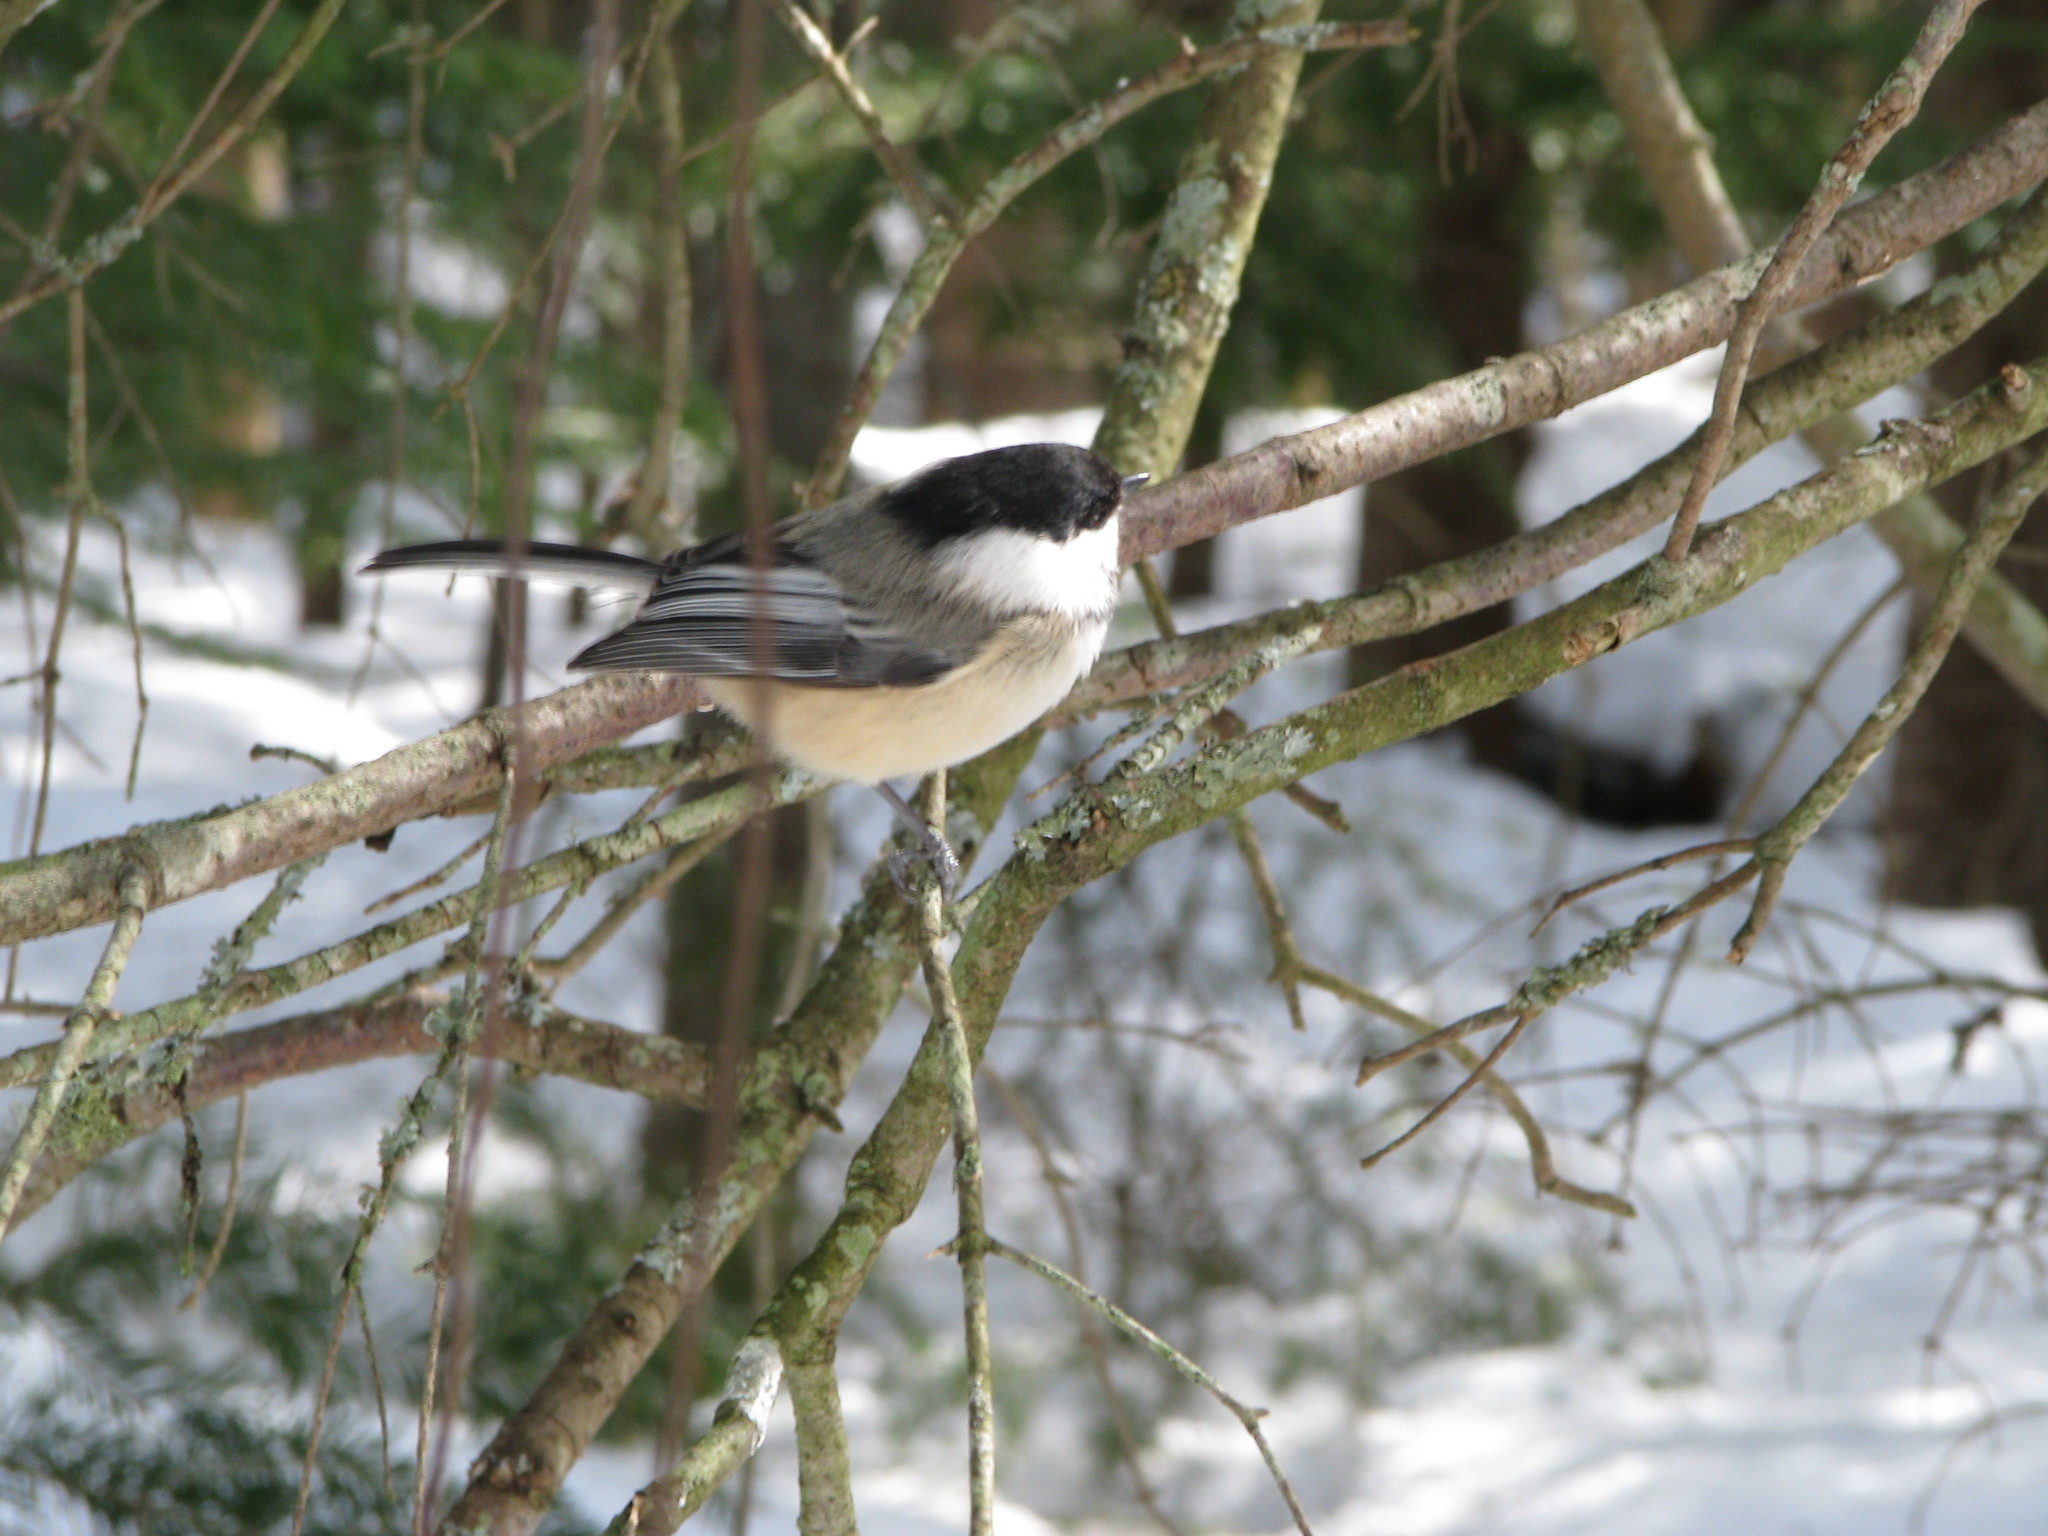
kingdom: Animalia
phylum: Chordata
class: Aves
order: Passeriformes
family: Paridae
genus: Poecile
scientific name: Poecile atricapillus
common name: Black-capped chickadee
